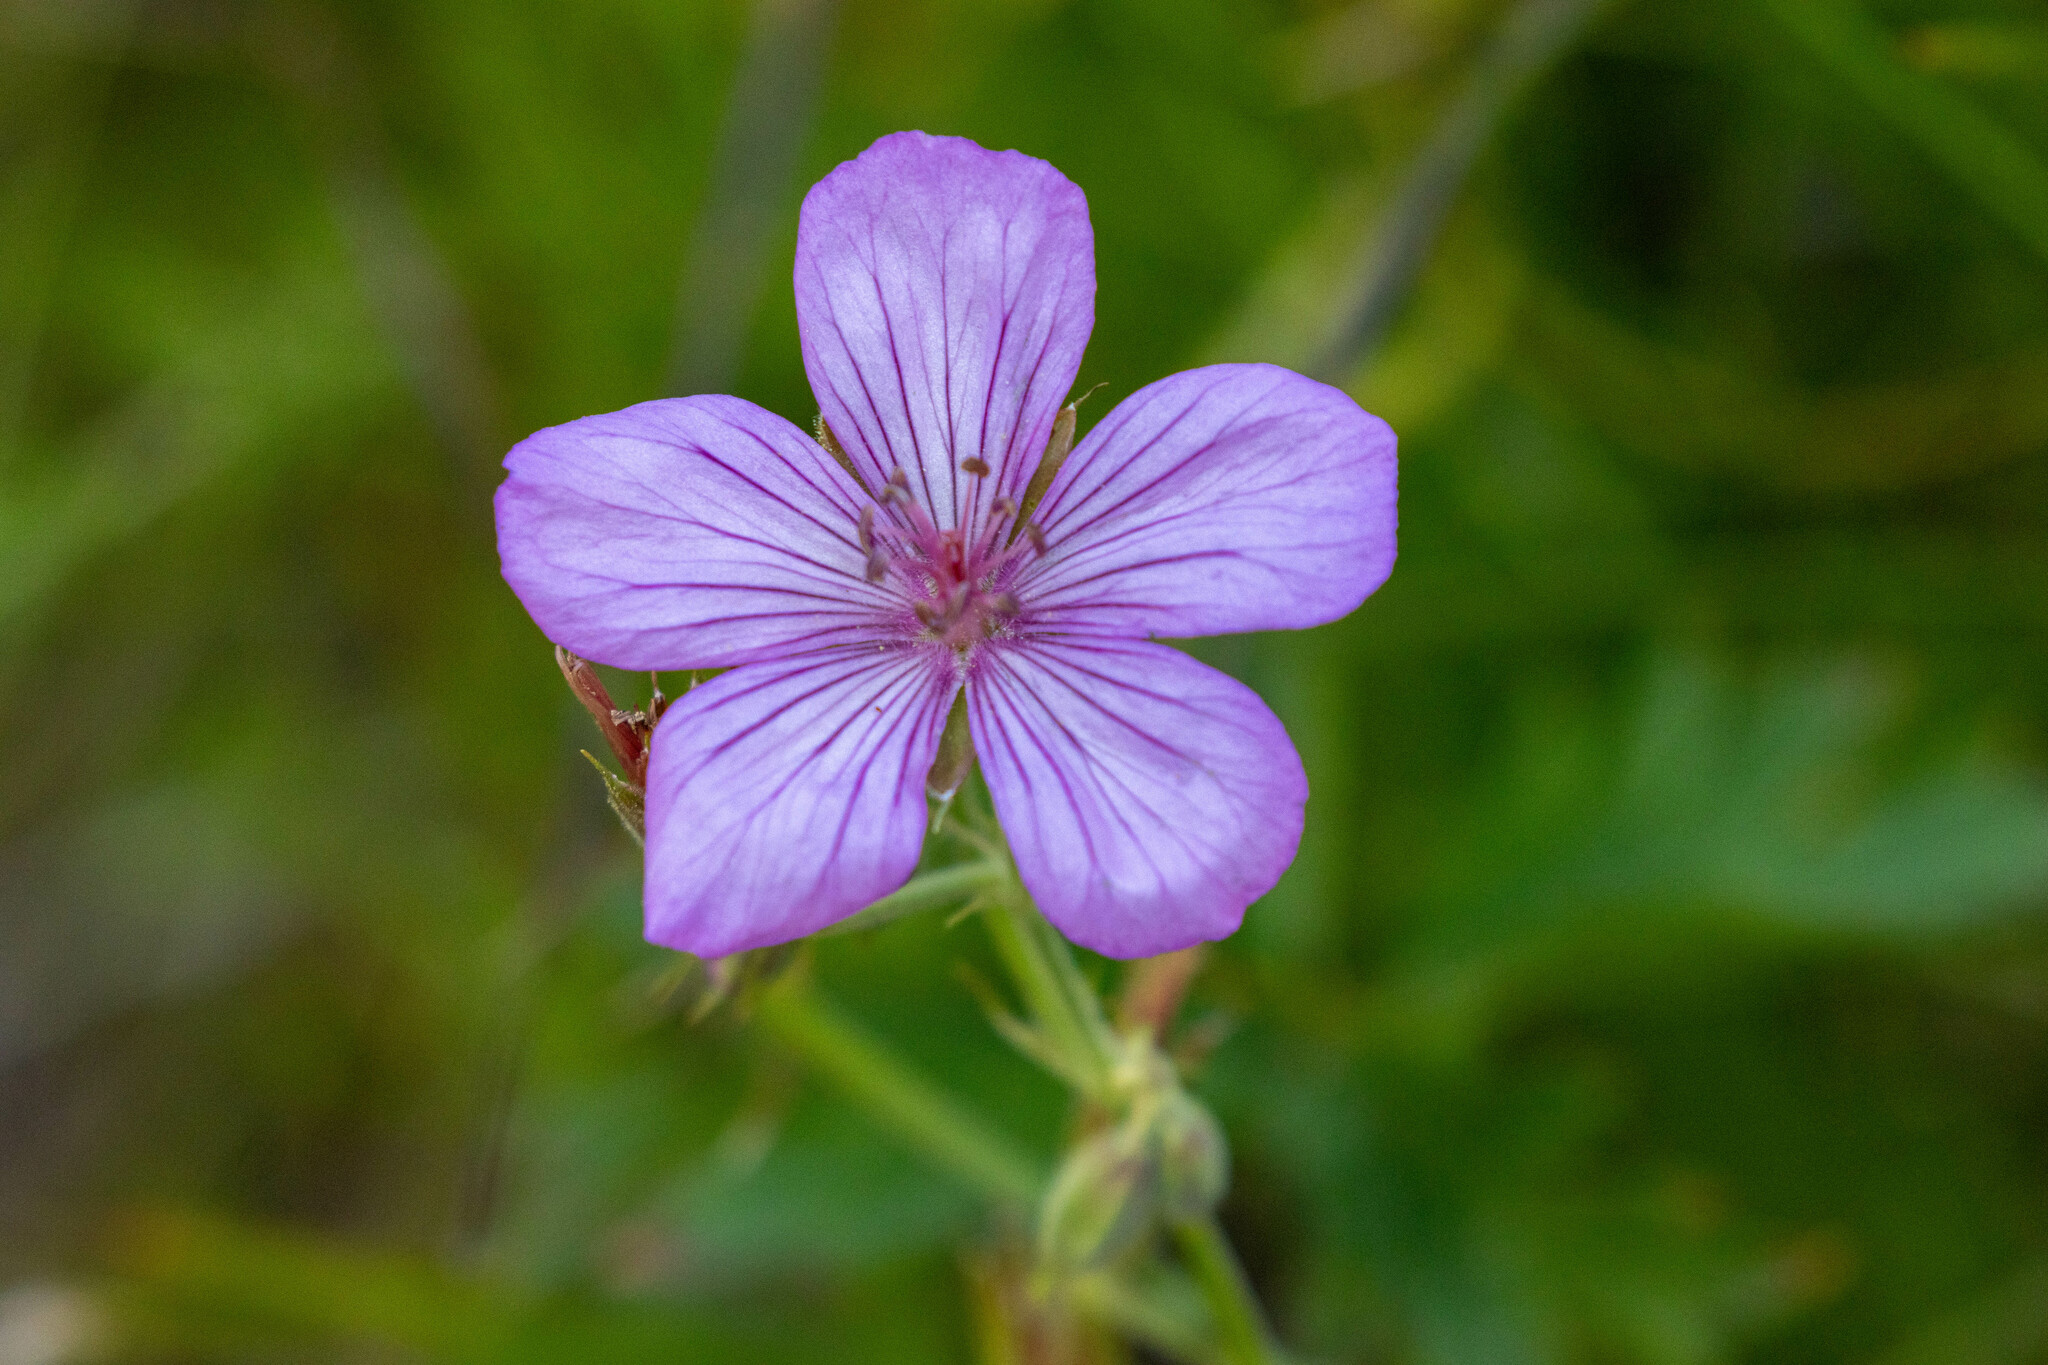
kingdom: Plantae
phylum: Tracheophyta
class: Magnoliopsida
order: Geraniales
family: Geraniaceae
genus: Geranium
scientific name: Geranium viscosissimum
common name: Purple geranium
